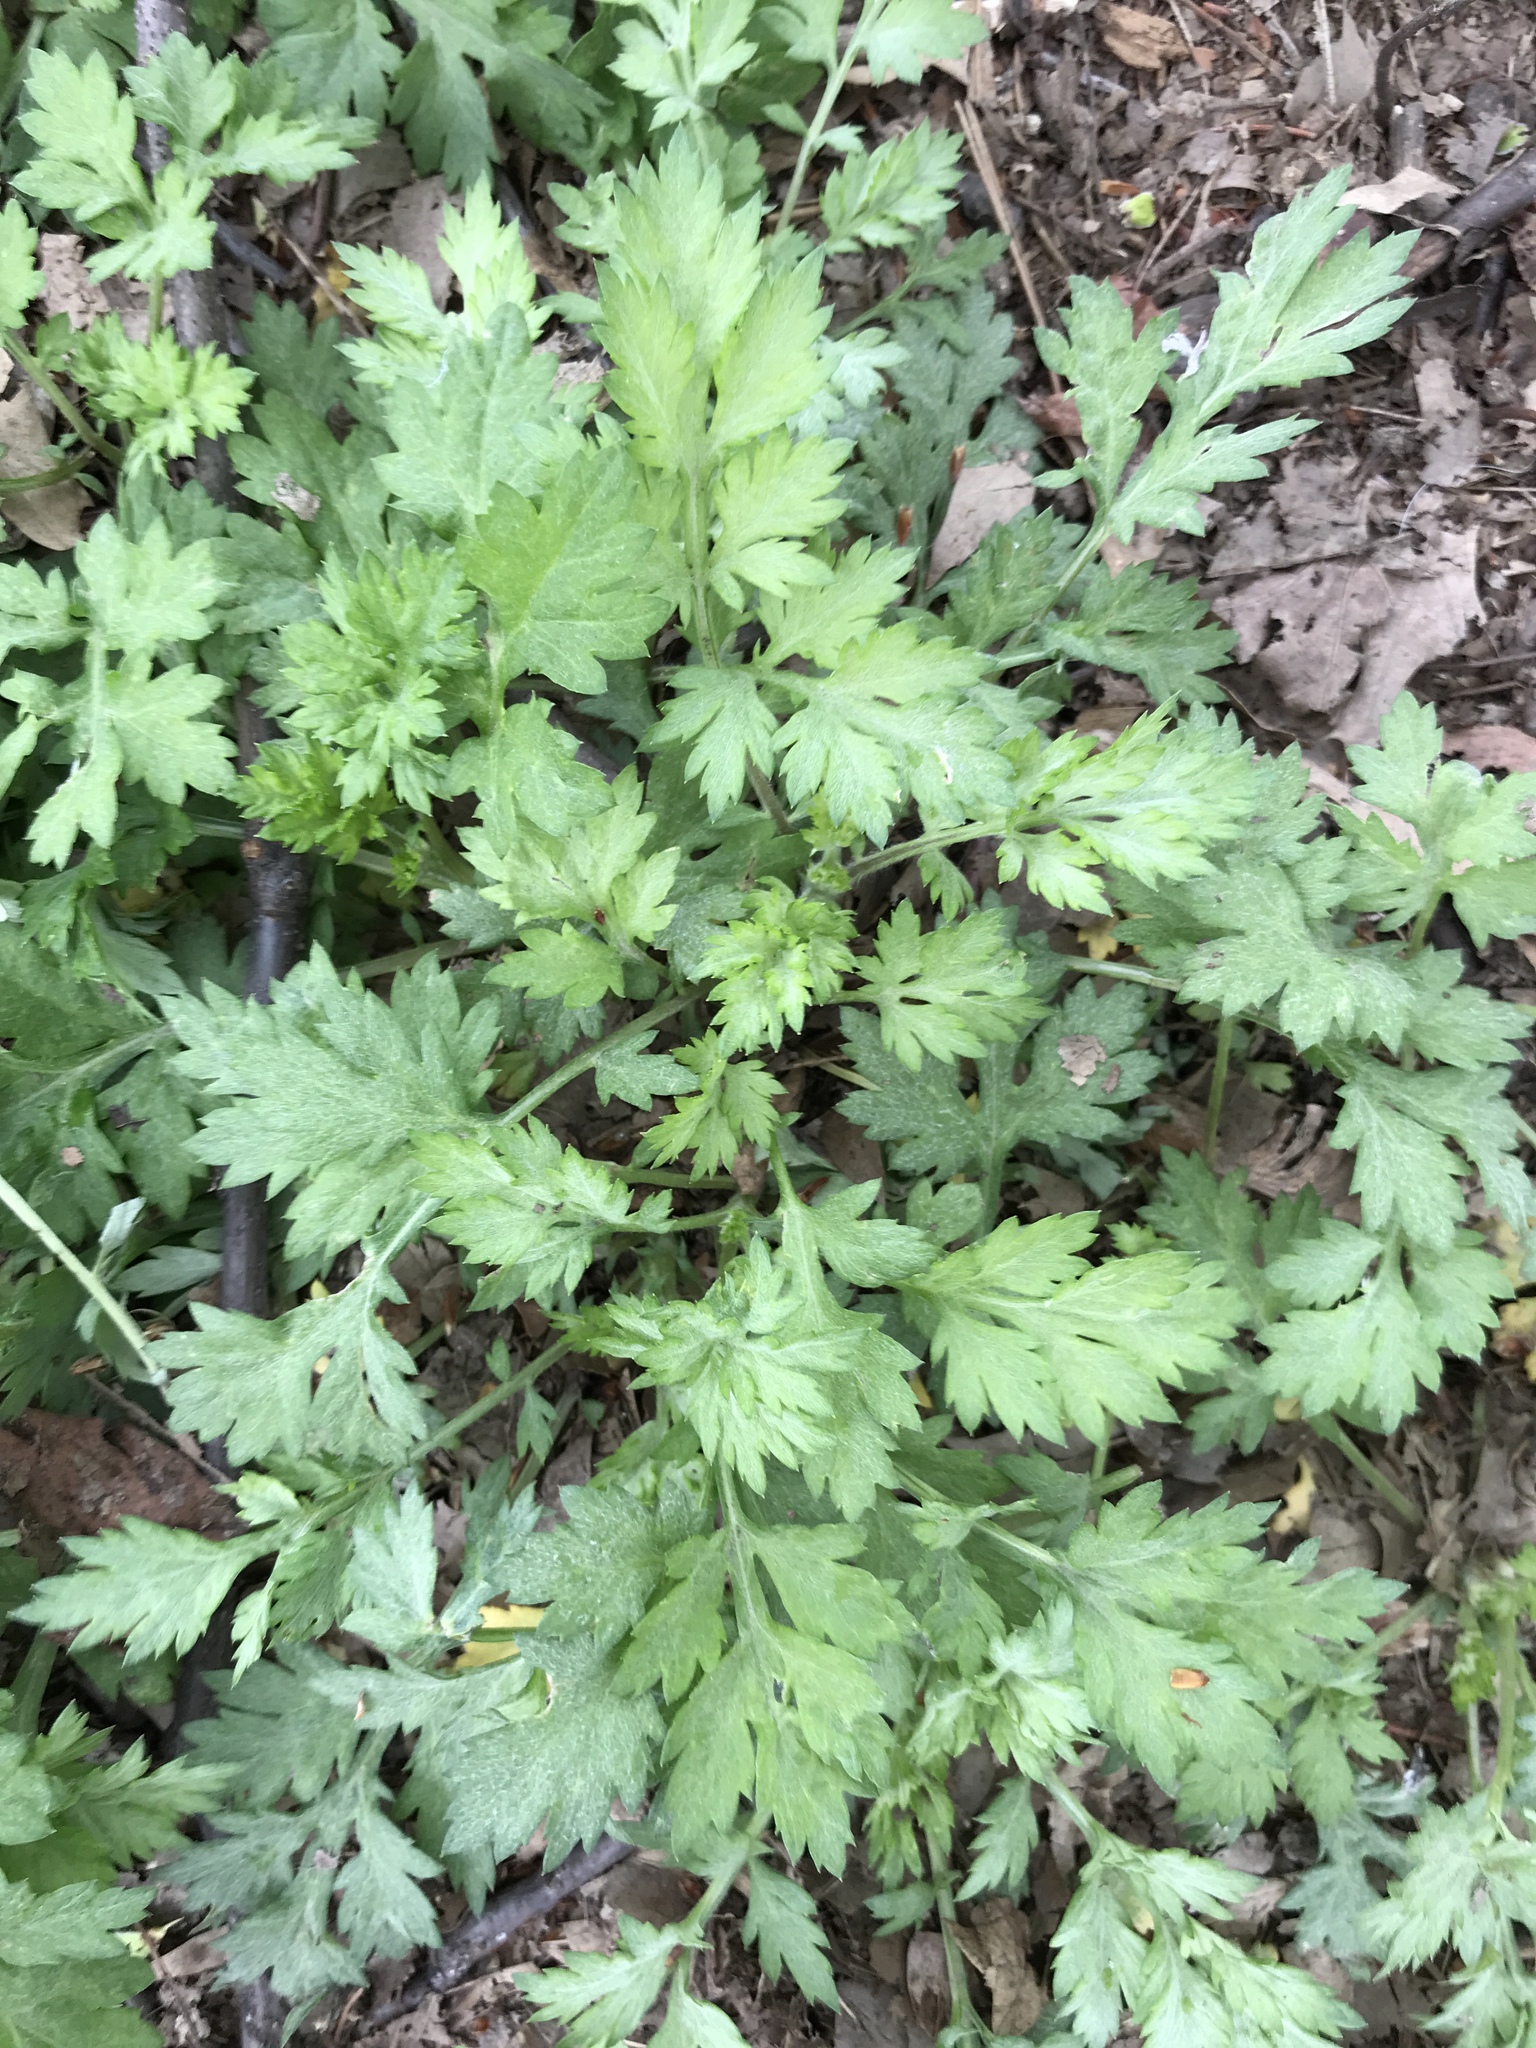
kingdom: Plantae
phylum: Tracheophyta
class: Magnoliopsida
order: Asterales
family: Asteraceae
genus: Artemisia
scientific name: Artemisia vulgaris
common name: Mugwort
